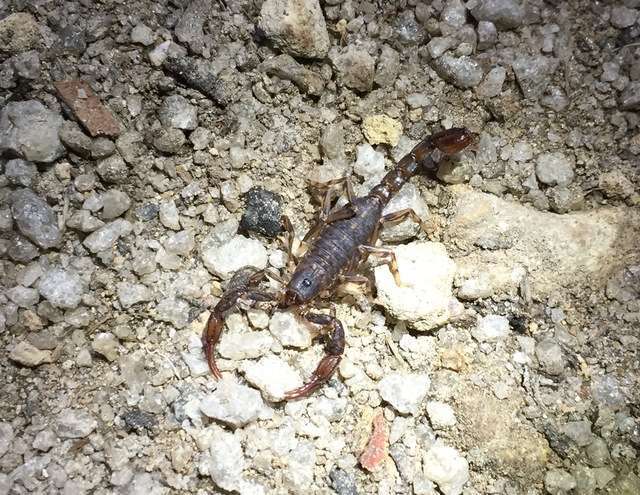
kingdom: Animalia
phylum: Arthropoda
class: Arachnida
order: Scorpiones
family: Bothriuridae
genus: Cercophonius
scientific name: Cercophonius squama
